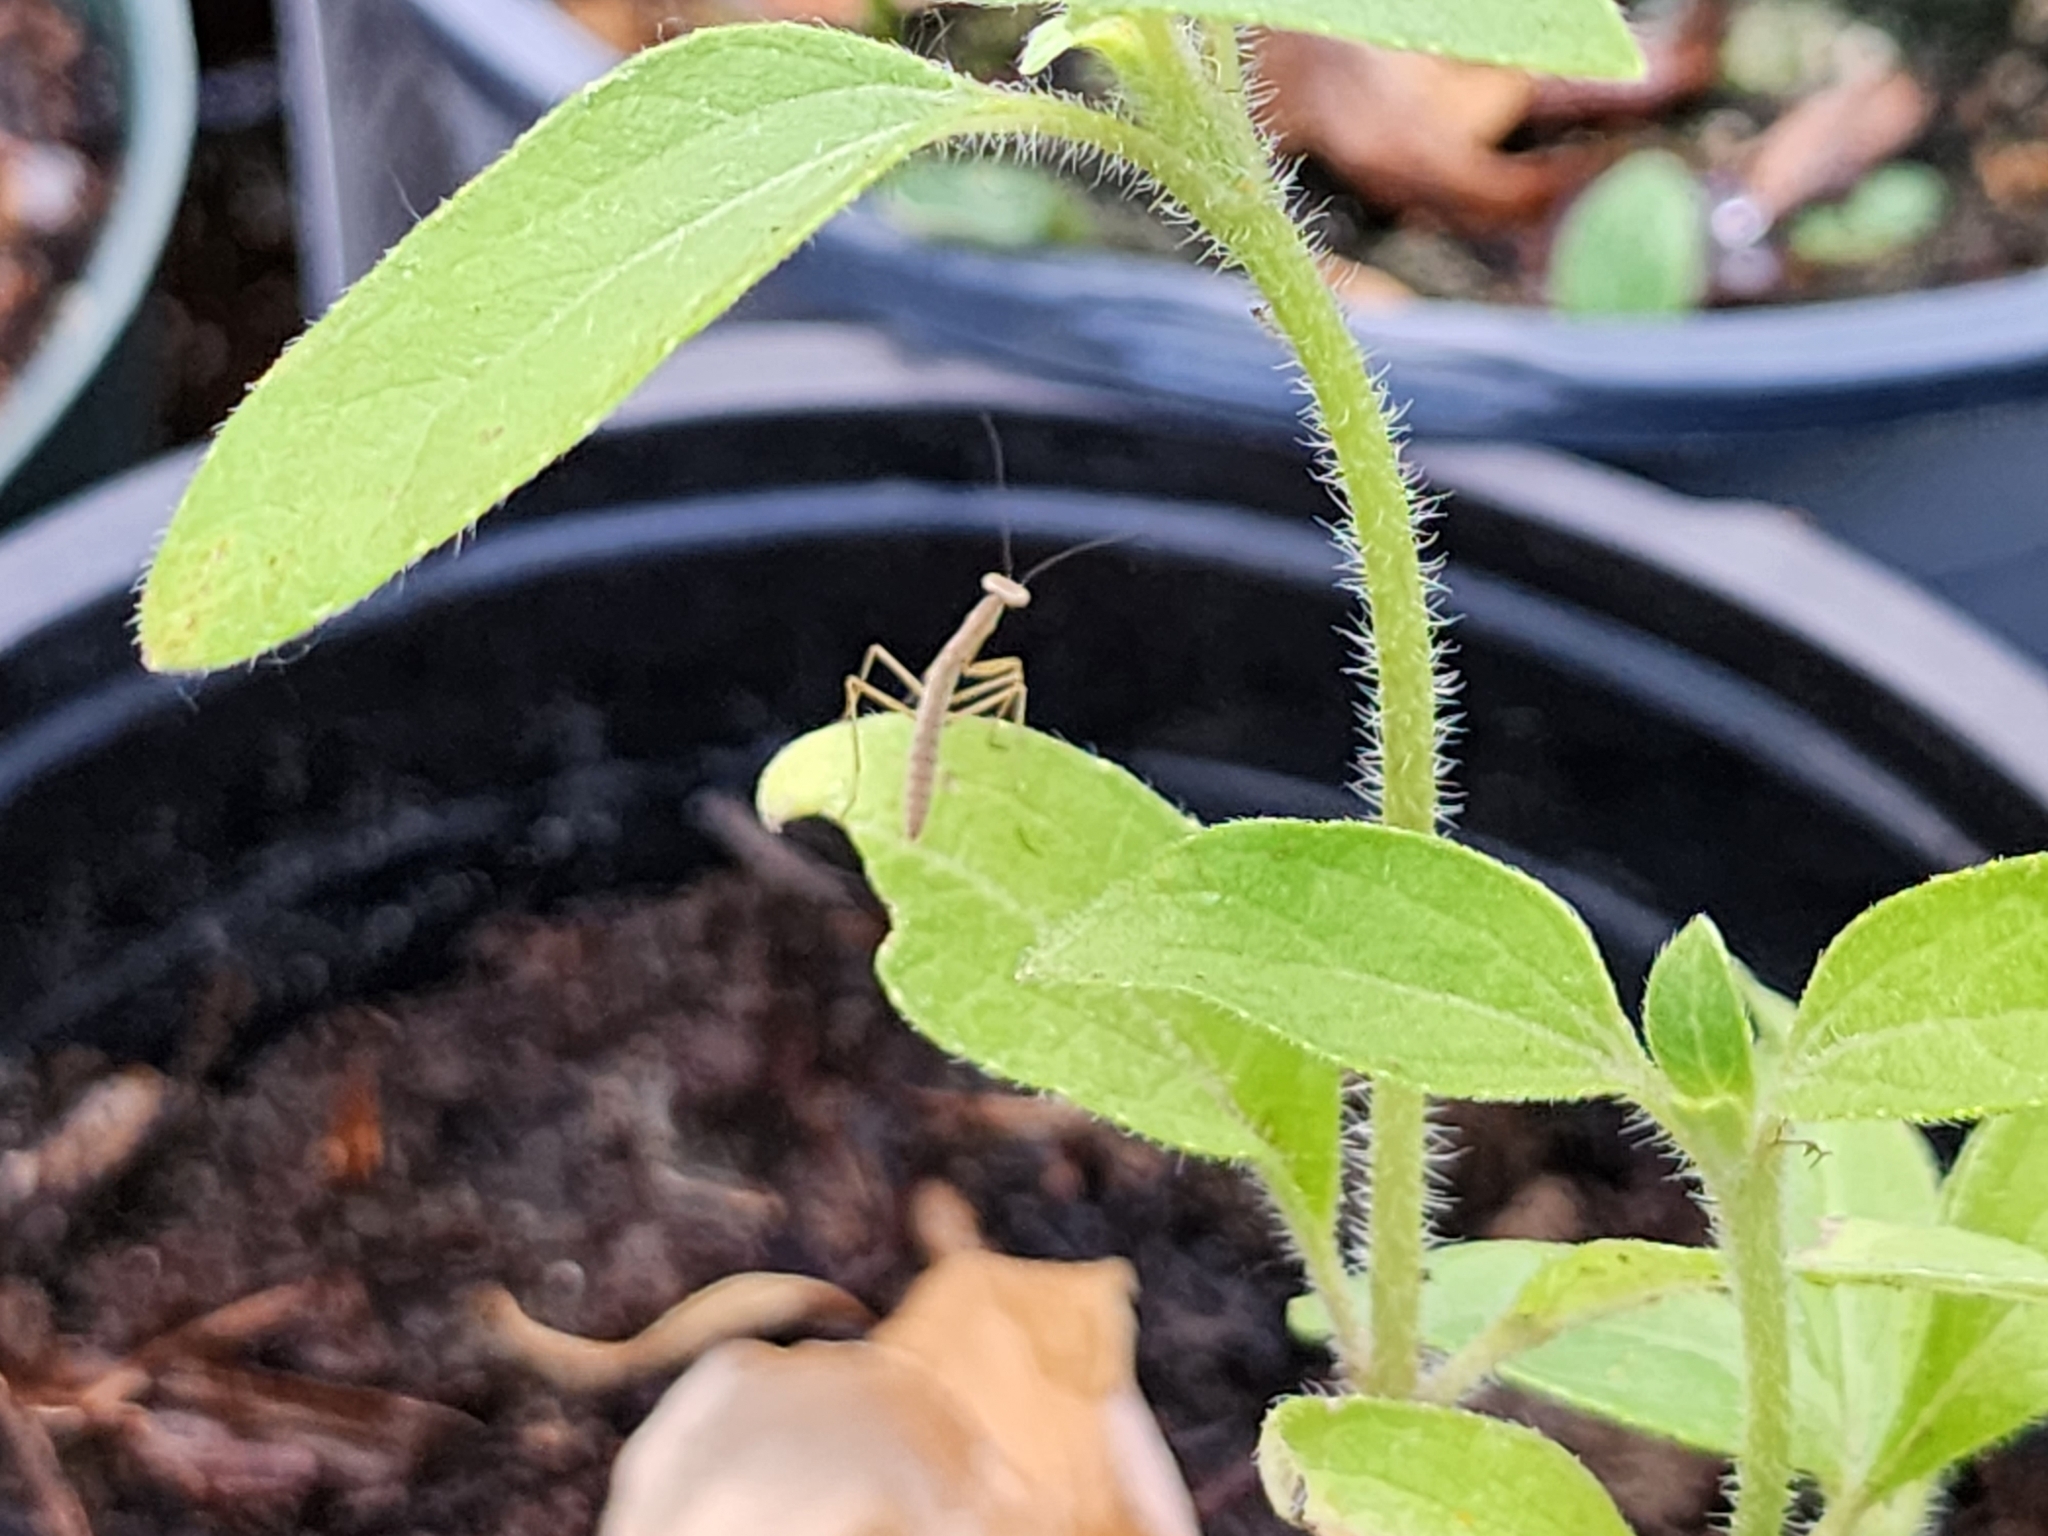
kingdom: Animalia
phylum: Arthropoda
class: Insecta
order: Mantodea
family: Mantidae
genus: Tenodera
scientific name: Tenodera sinensis
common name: Chinese mantis
